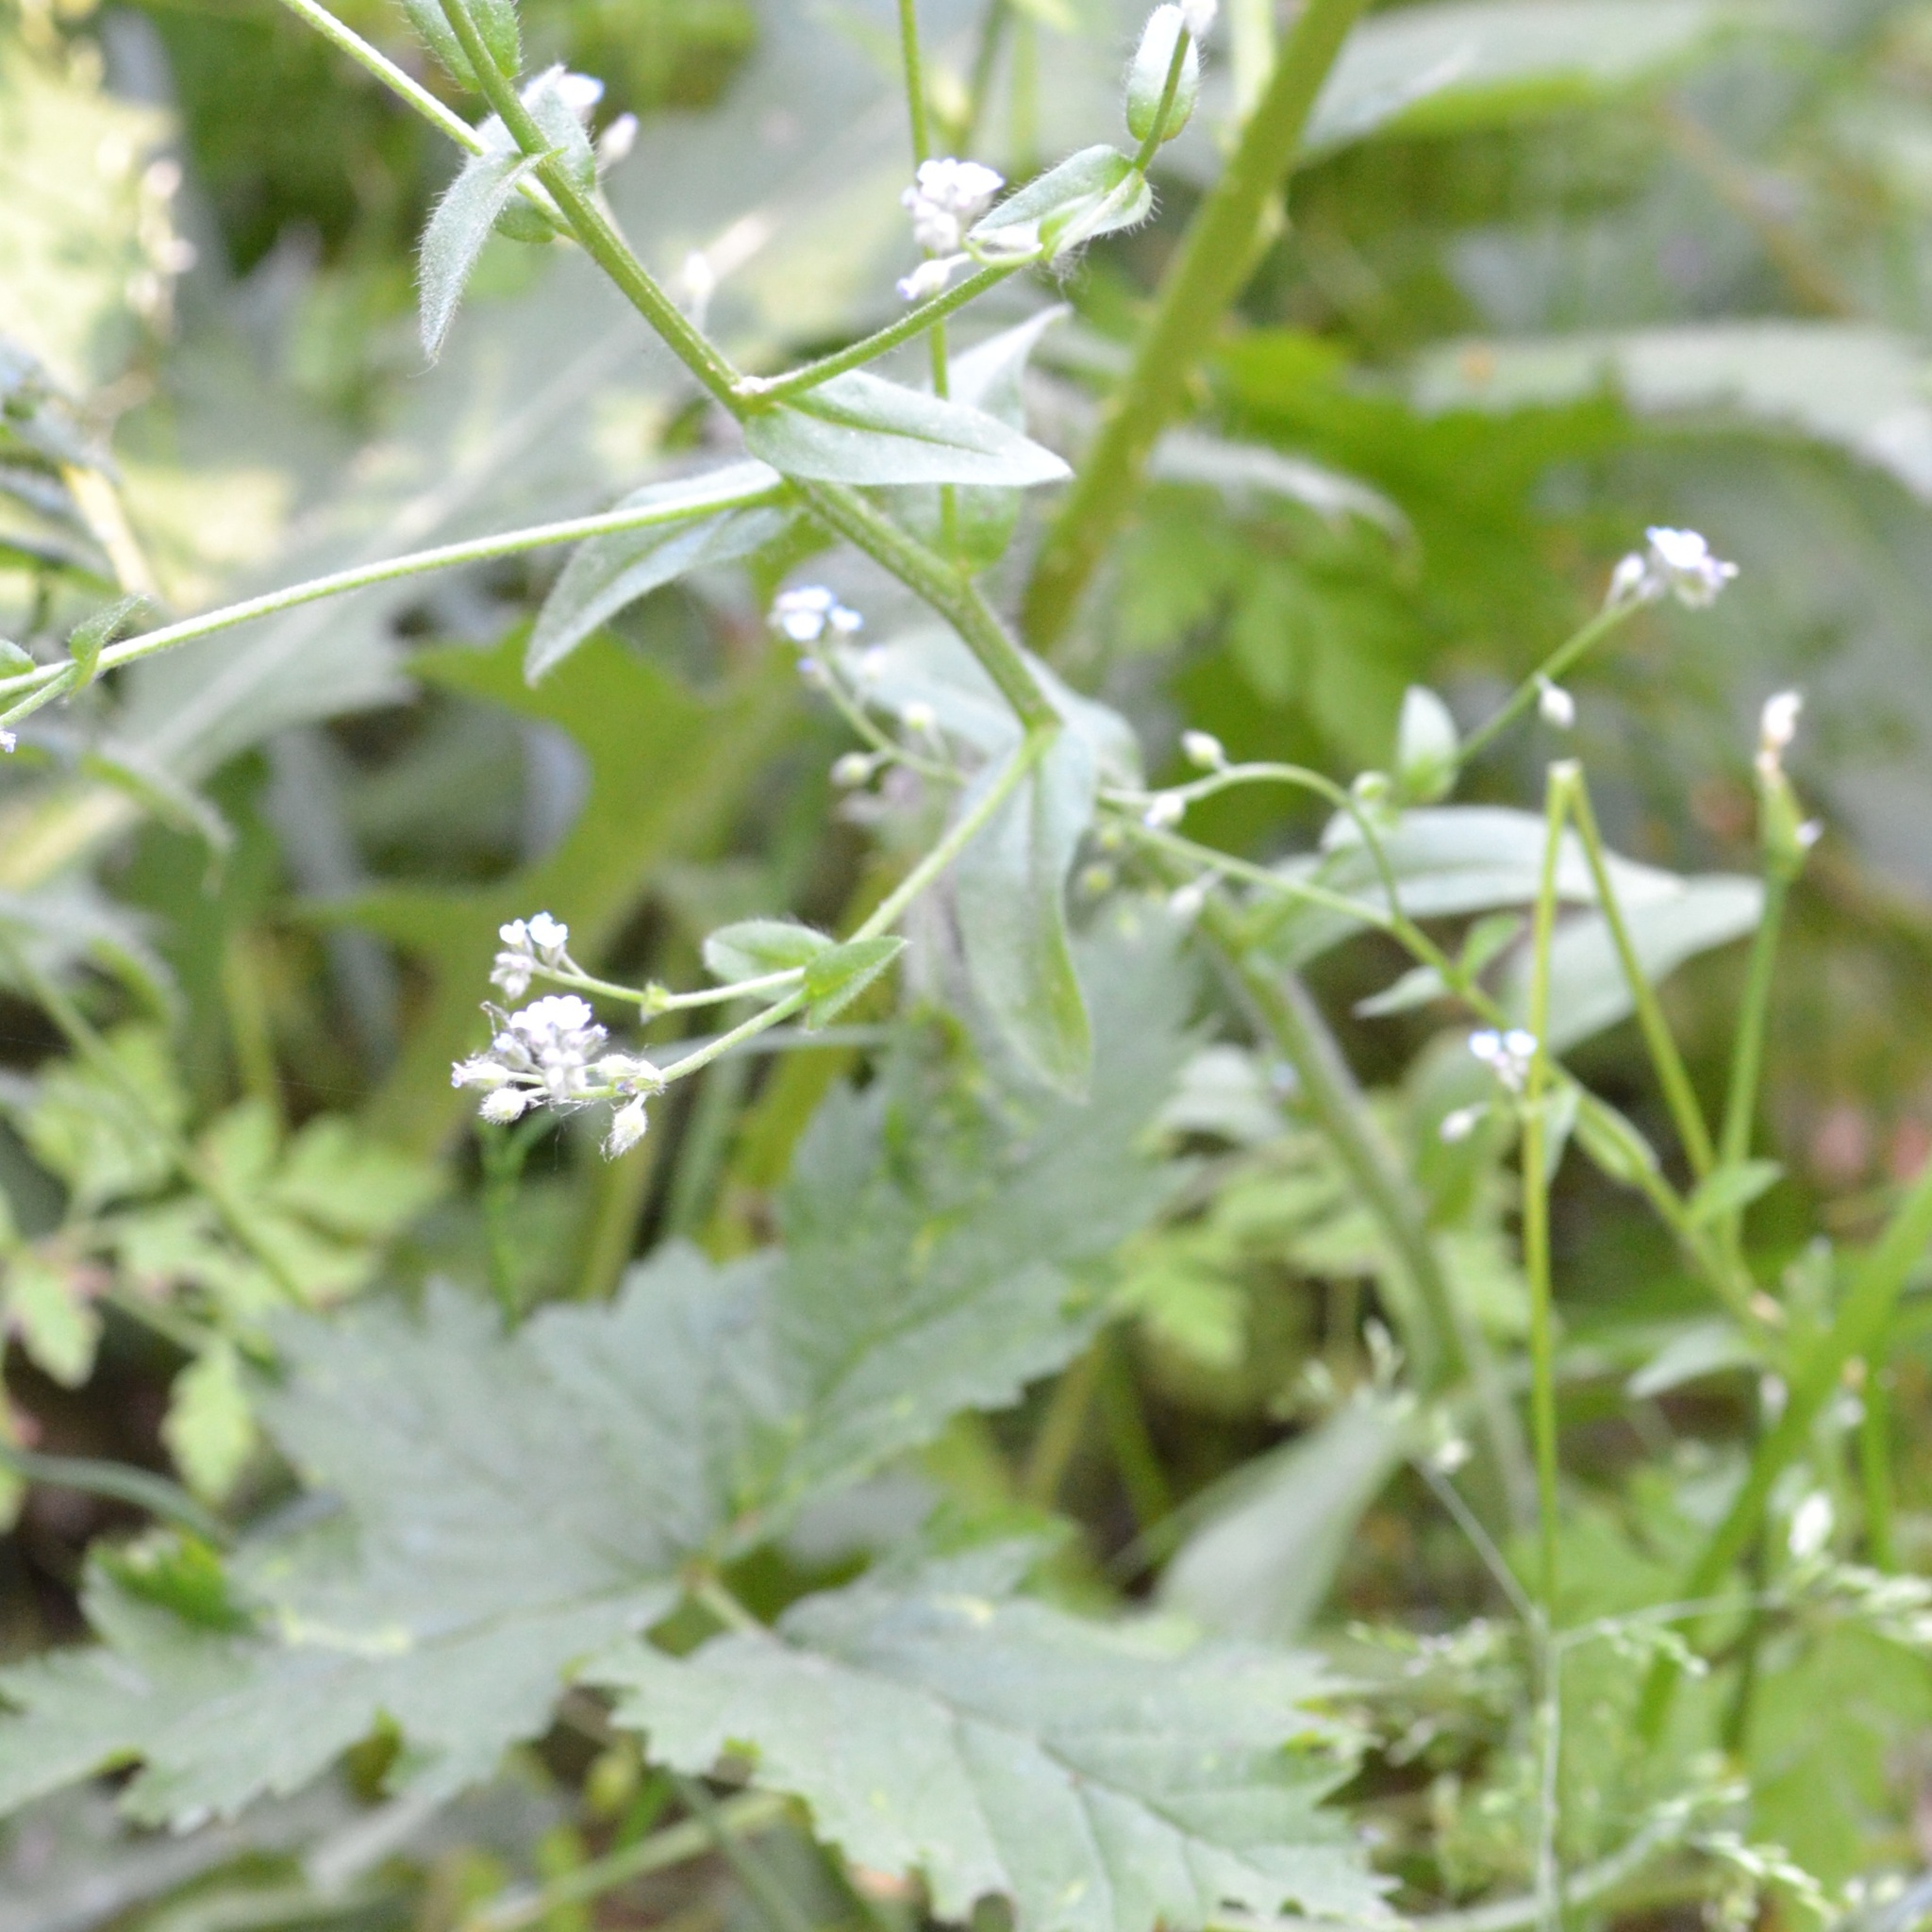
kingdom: Plantae
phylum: Tracheophyta
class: Magnoliopsida
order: Boraginales
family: Boraginaceae
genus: Myosotis
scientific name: Myosotis arvensis
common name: Field forget-me-not
